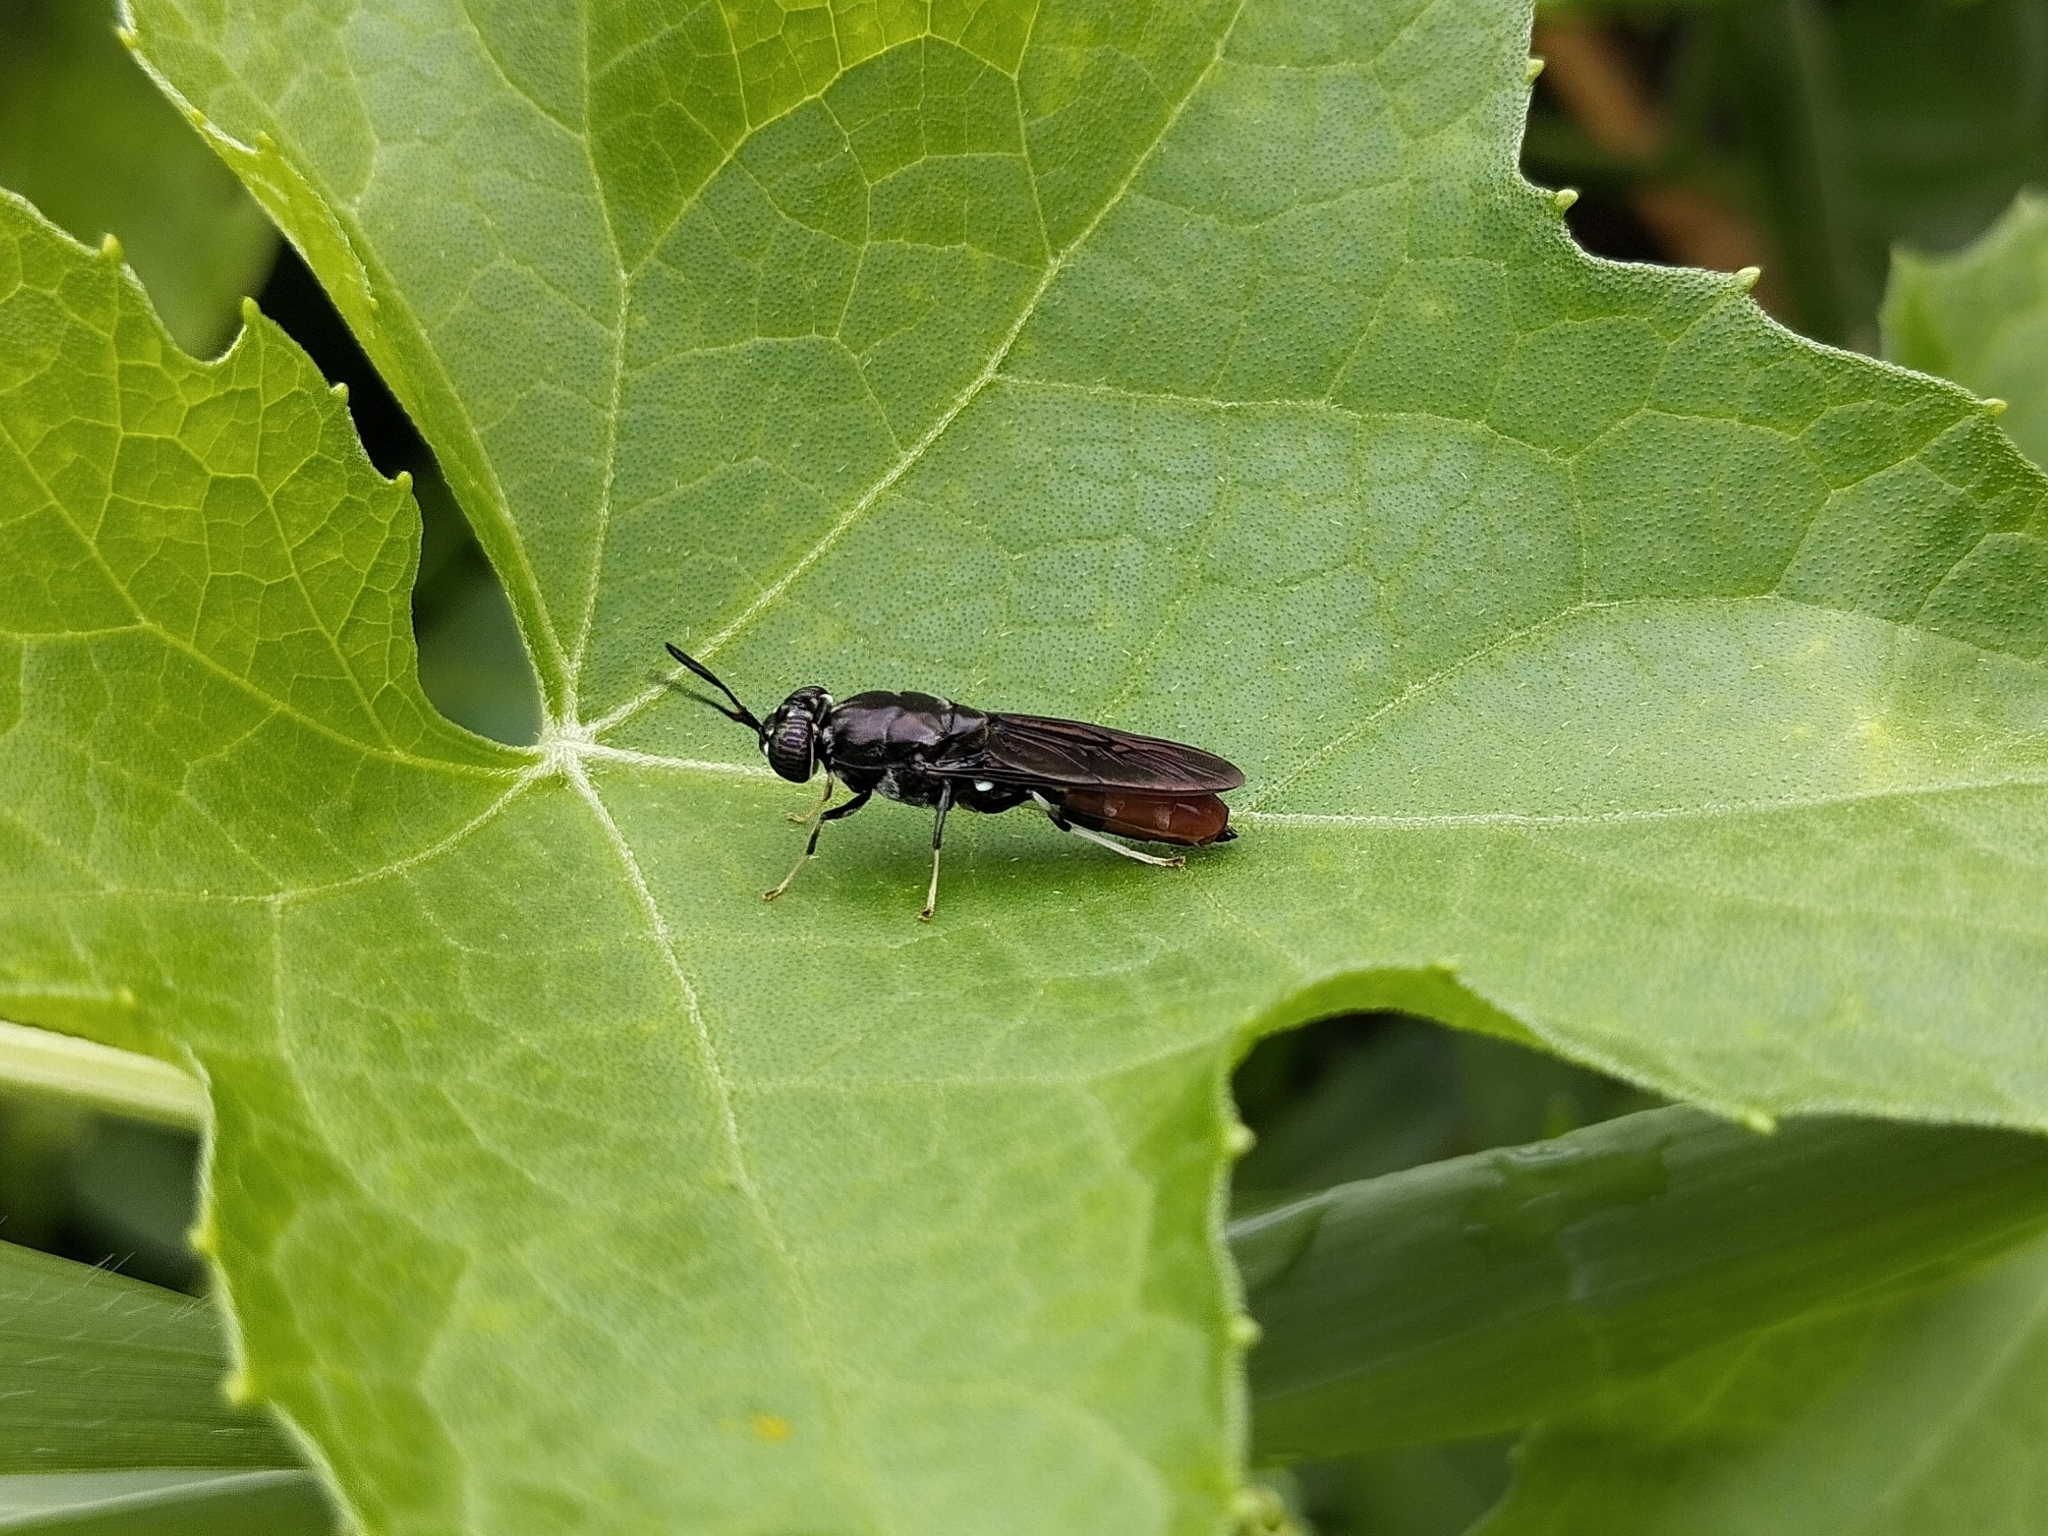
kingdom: Animalia
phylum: Arthropoda
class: Insecta
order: Diptera
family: Stratiomyidae
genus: Hermetia
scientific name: Hermetia illucens
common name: Black soldier fly
